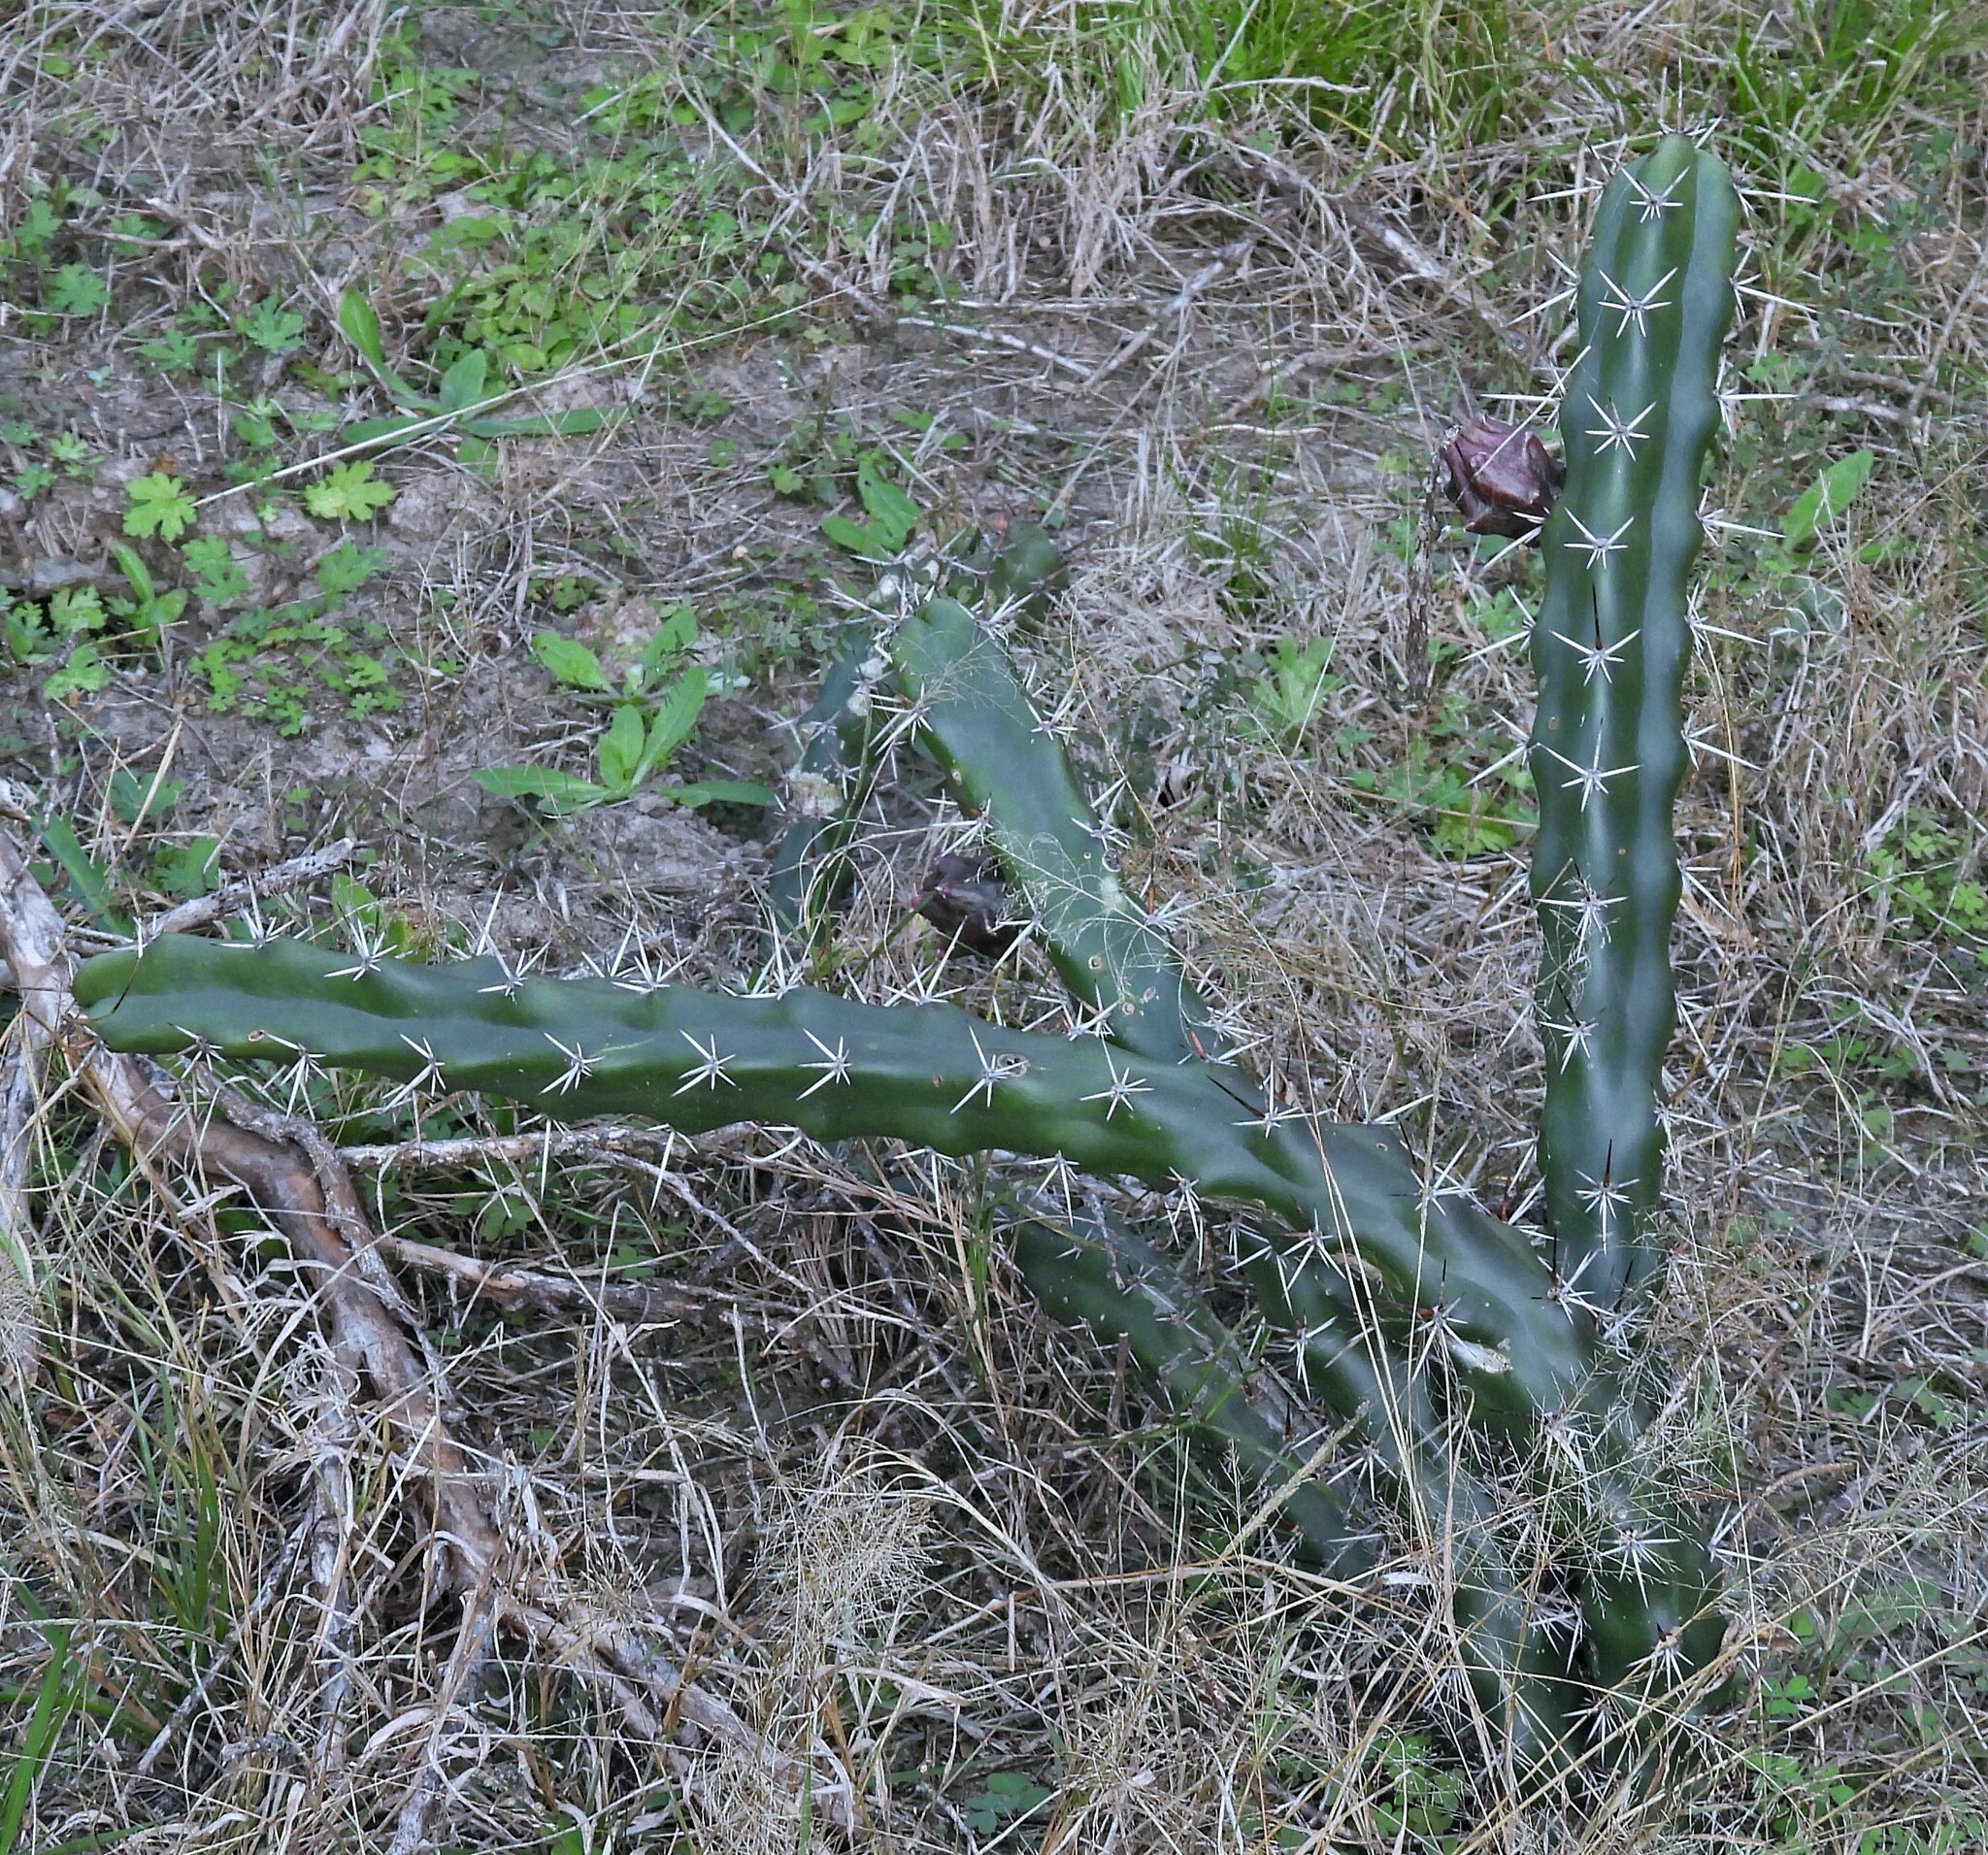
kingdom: Plantae
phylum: Tracheophyta
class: Magnoliopsida
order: Caryophyllales
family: Cactaceae
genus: Harrisia
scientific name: Harrisia pomanensis
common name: Midnight-lady
